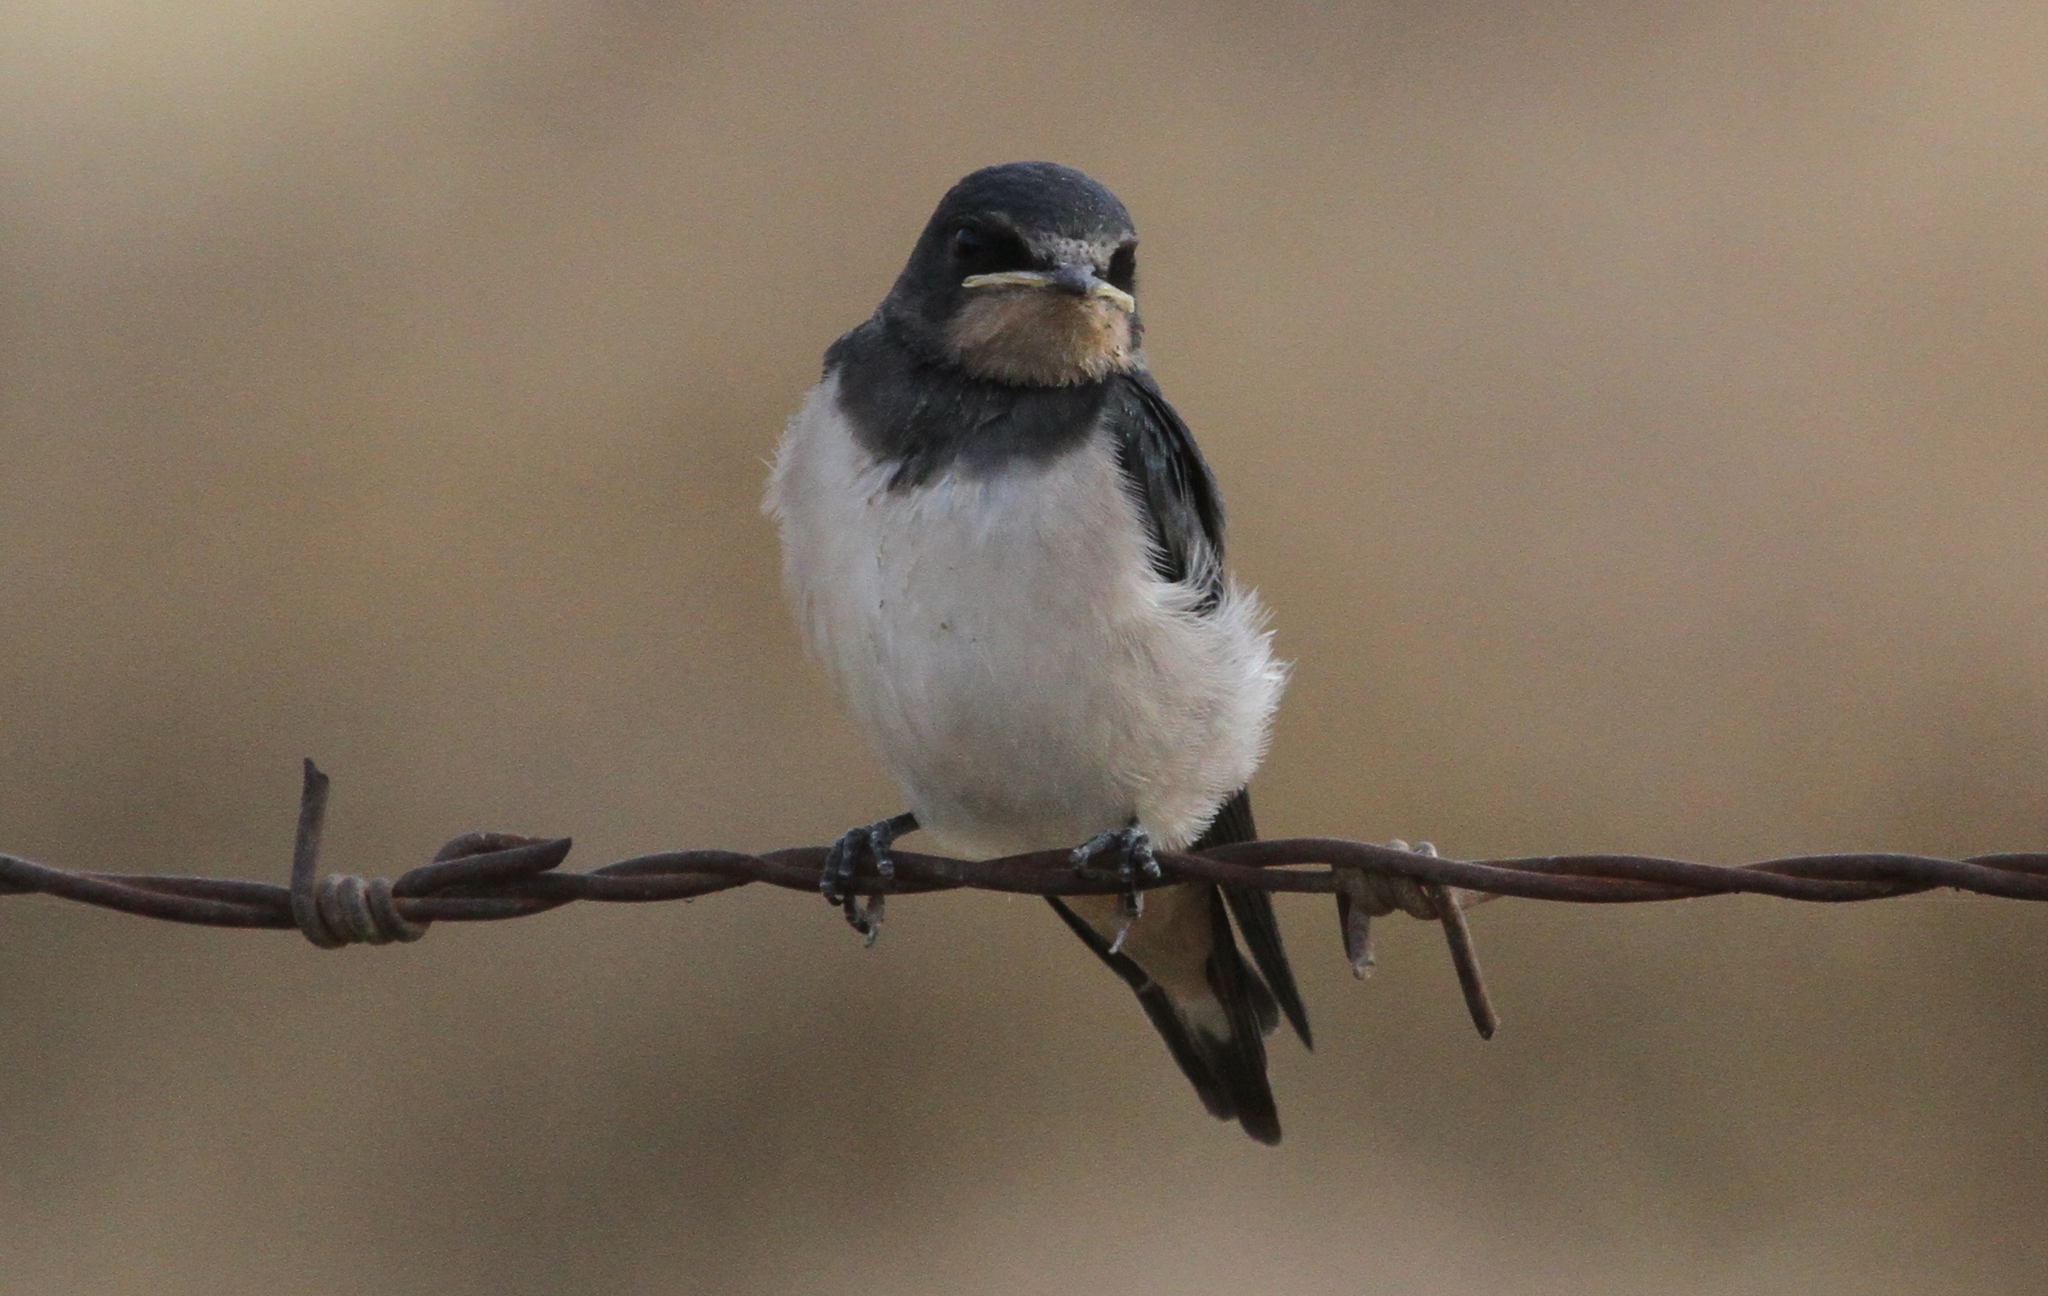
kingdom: Animalia
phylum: Chordata
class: Aves
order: Passeriformes
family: Hirundinidae
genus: Hirundo
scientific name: Hirundo rustica
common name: Barn swallow
